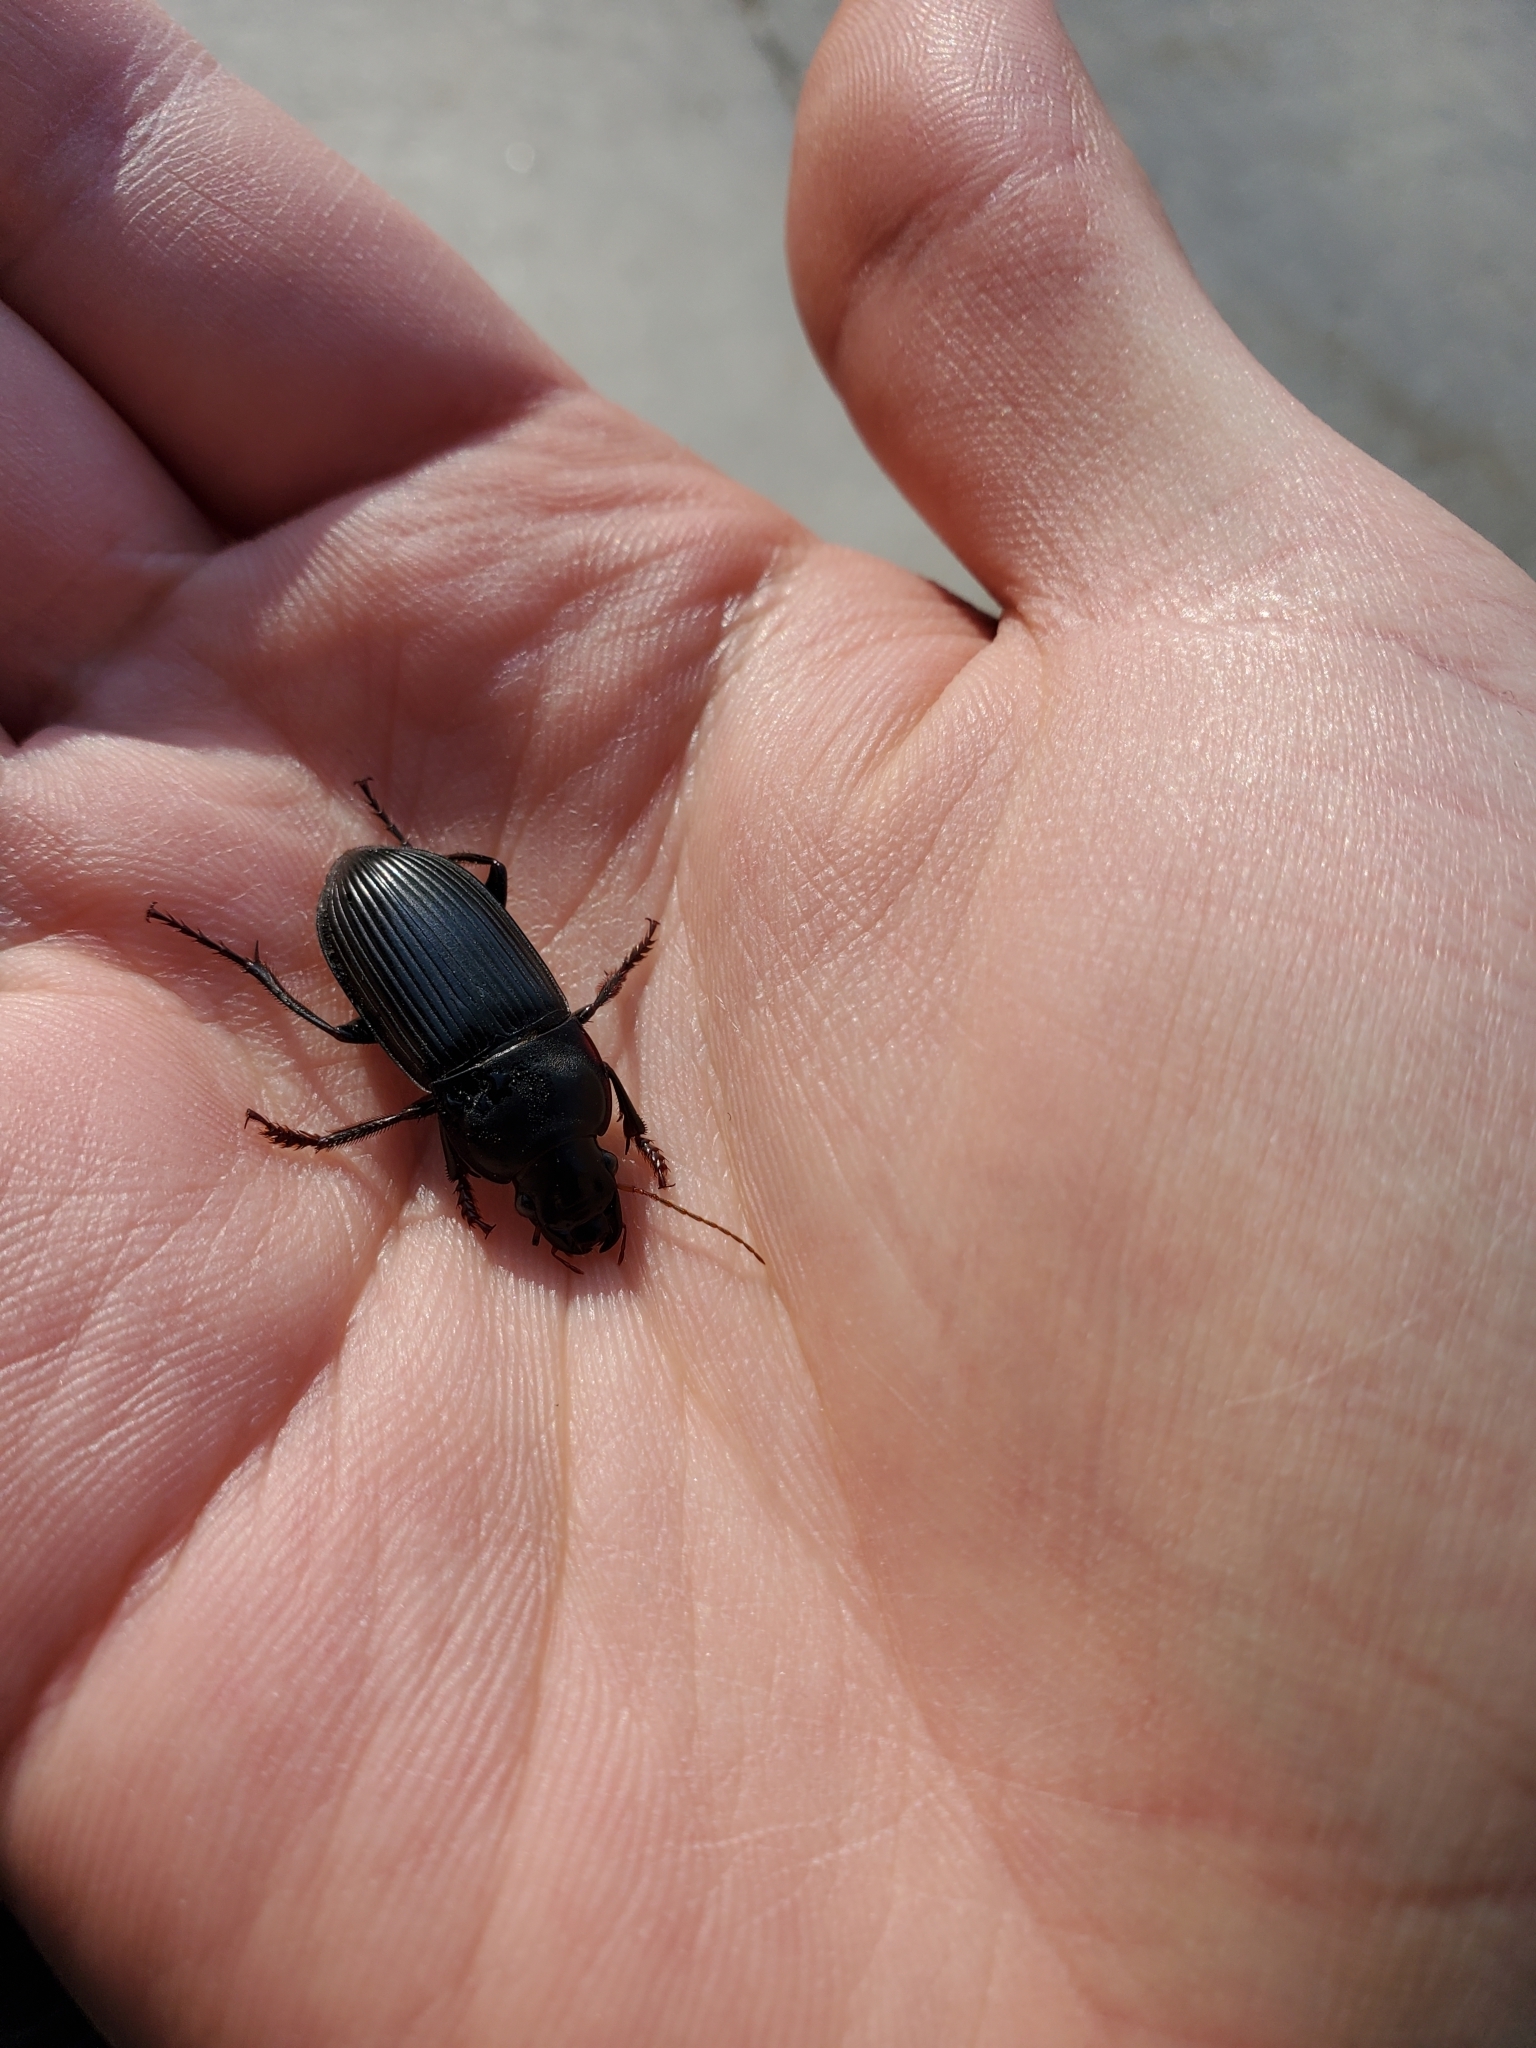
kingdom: Animalia
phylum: Arthropoda
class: Insecta
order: Coleoptera
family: Carabidae
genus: Harpalus
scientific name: Harpalus caliginosus
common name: Murky ground beetle
